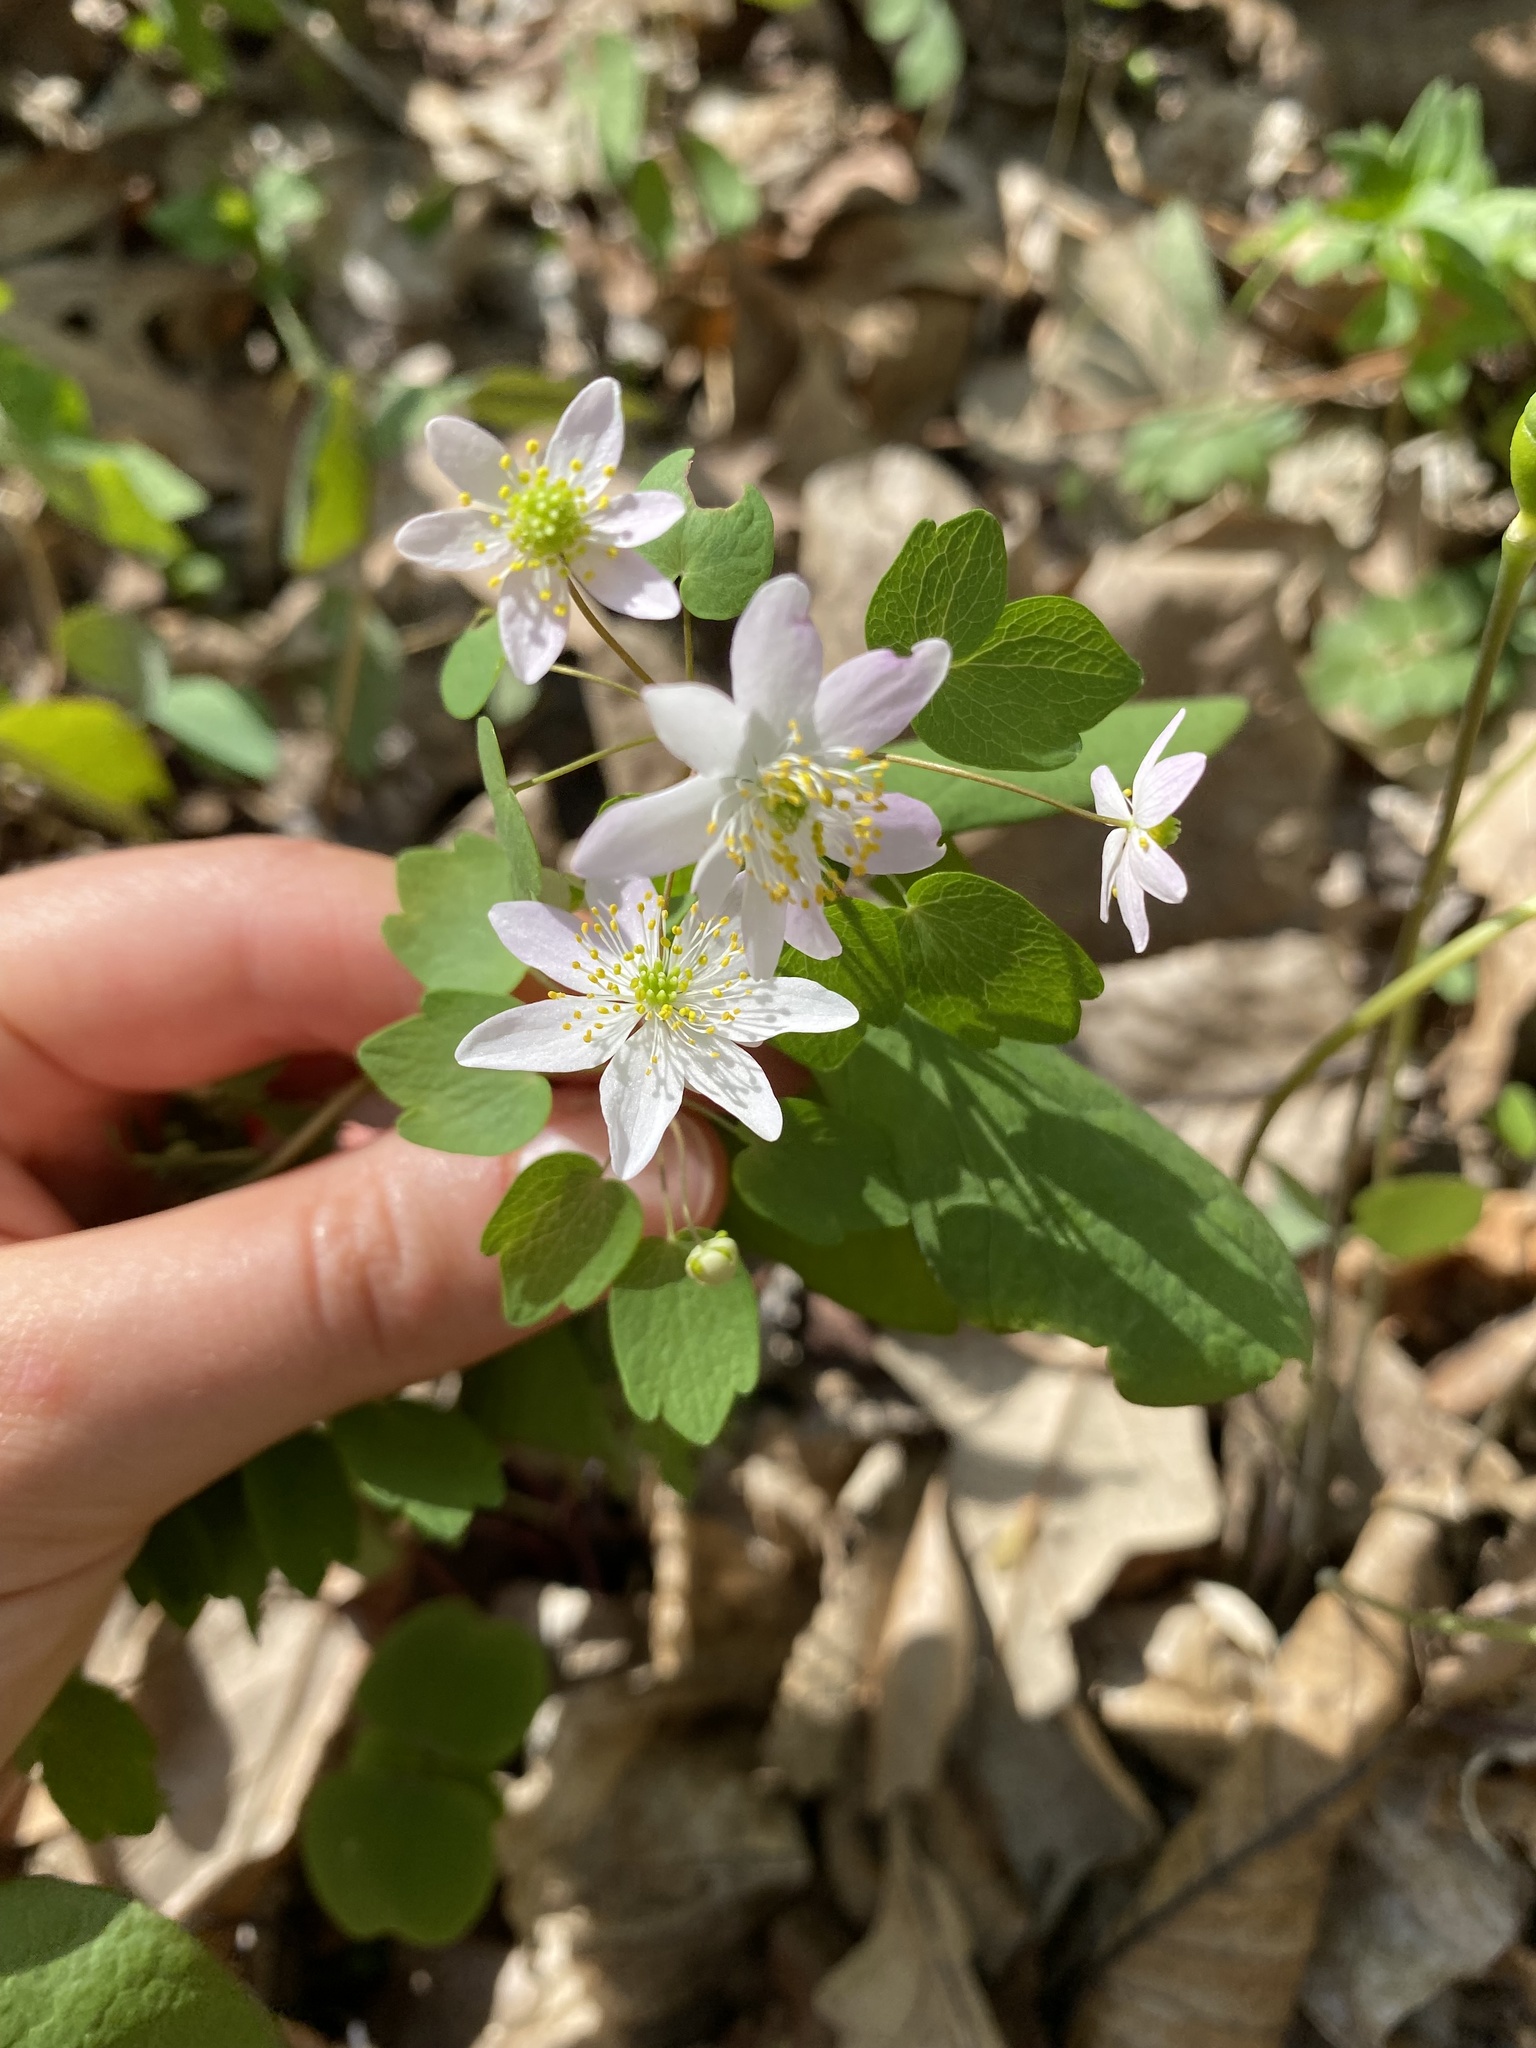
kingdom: Plantae
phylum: Tracheophyta
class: Magnoliopsida
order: Ranunculales
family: Ranunculaceae
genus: Thalictrum
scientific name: Thalictrum thalictroides
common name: Rue-anemone
